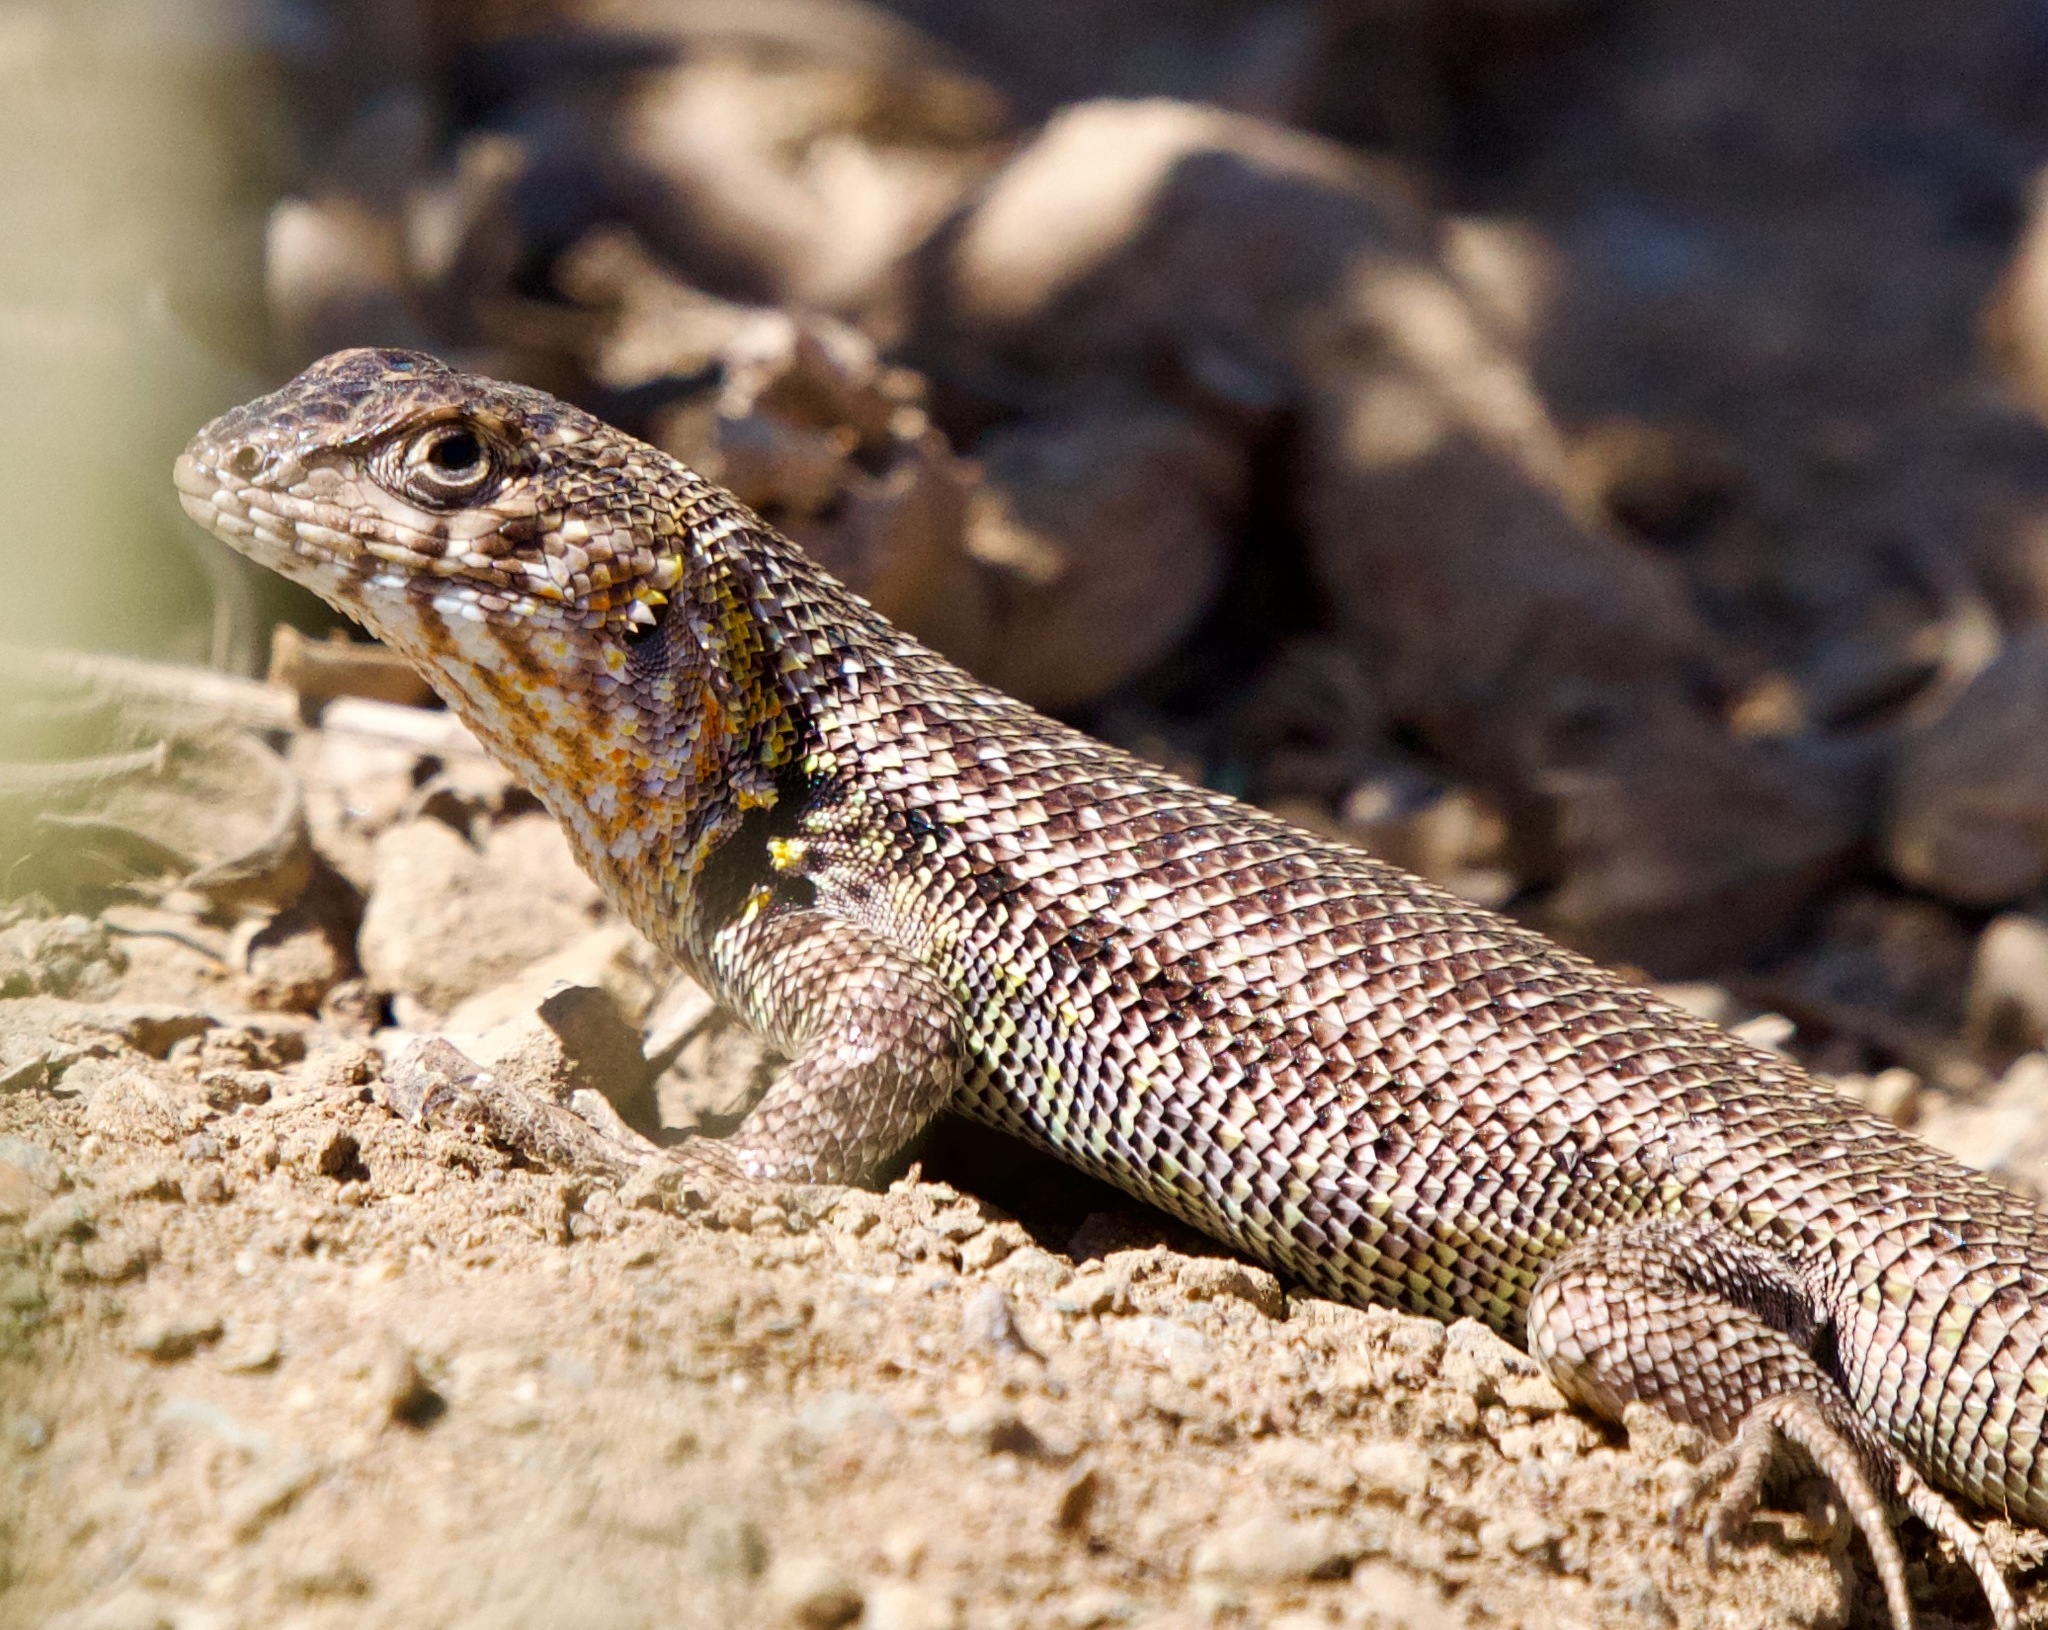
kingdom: Animalia
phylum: Chordata
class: Squamata
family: Liolaemidae
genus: Liolaemus
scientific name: Liolaemus zapallarensis
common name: Zapallaren tree iguana
